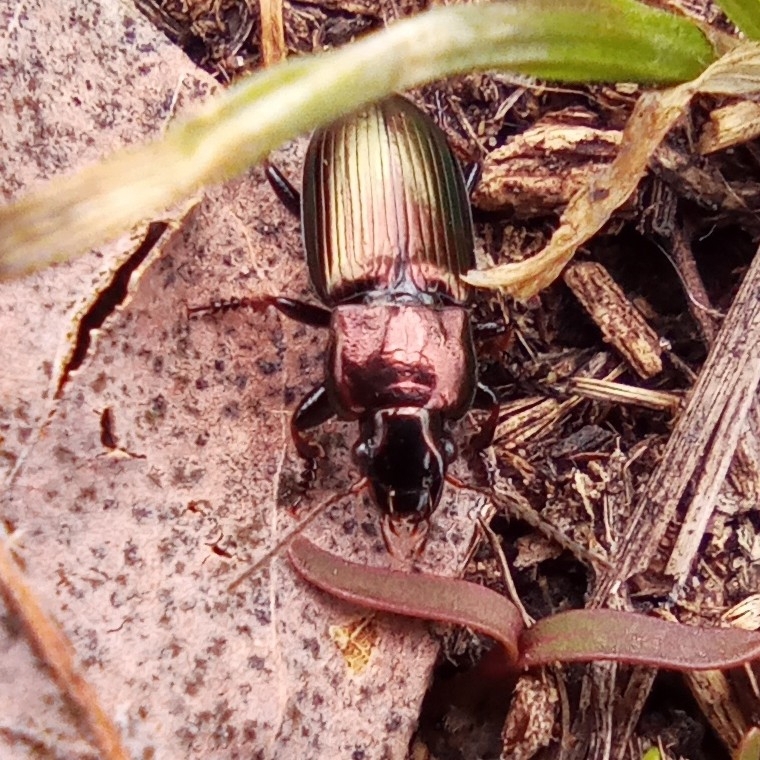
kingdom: Animalia
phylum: Arthropoda
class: Insecta
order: Coleoptera
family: Carabidae
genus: Harpalus
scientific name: Harpalus distinguendus
